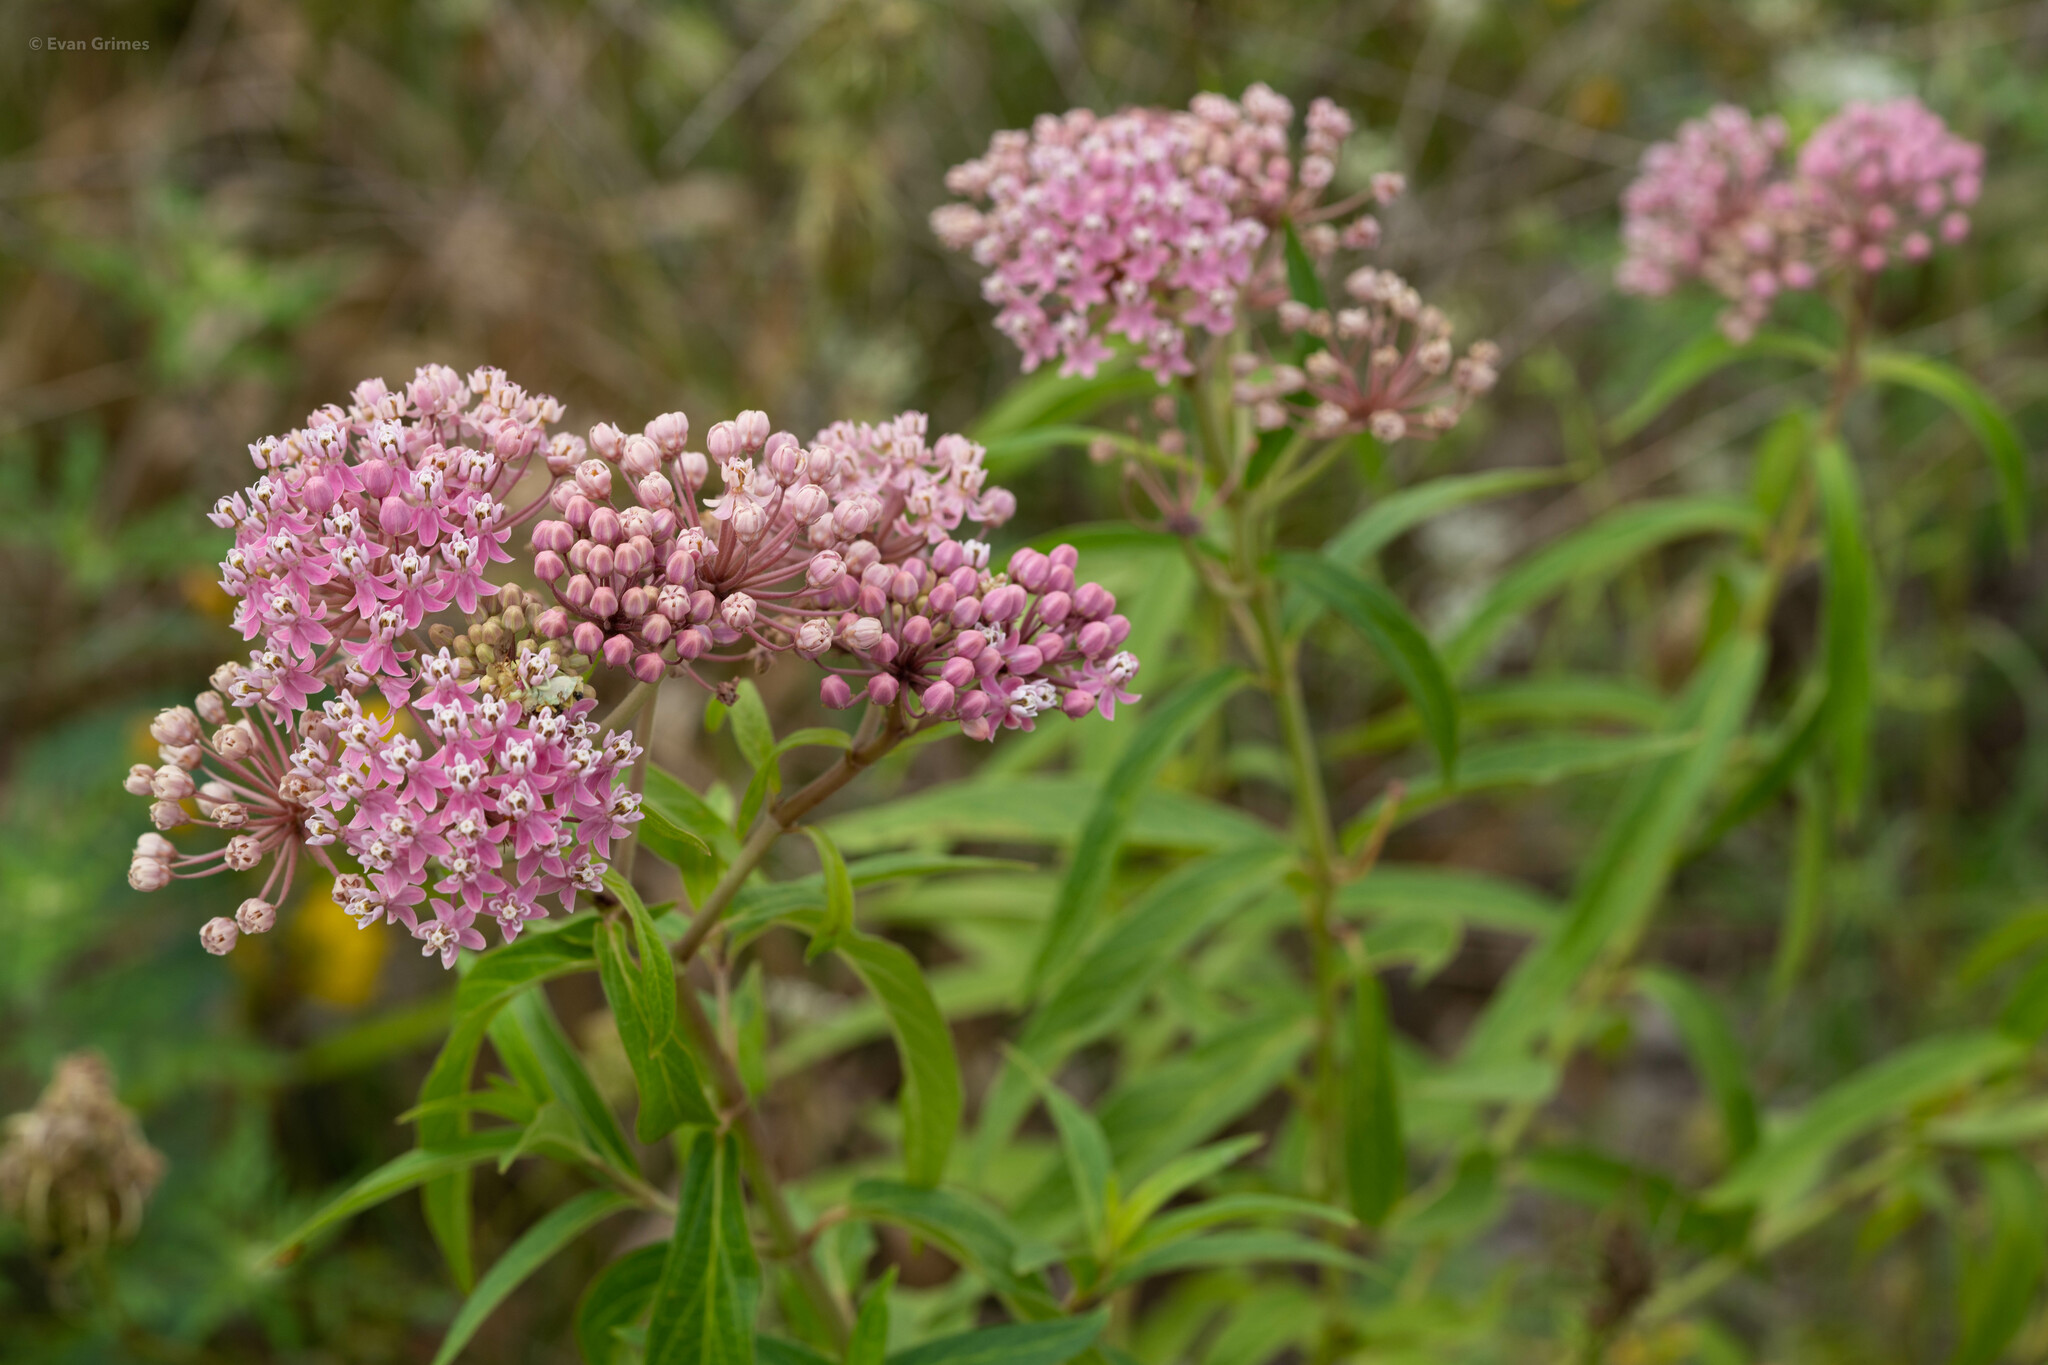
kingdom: Plantae
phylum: Tracheophyta
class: Magnoliopsida
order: Gentianales
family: Apocynaceae
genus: Asclepias
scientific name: Asclepias incarnata
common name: Swamp milkweed
